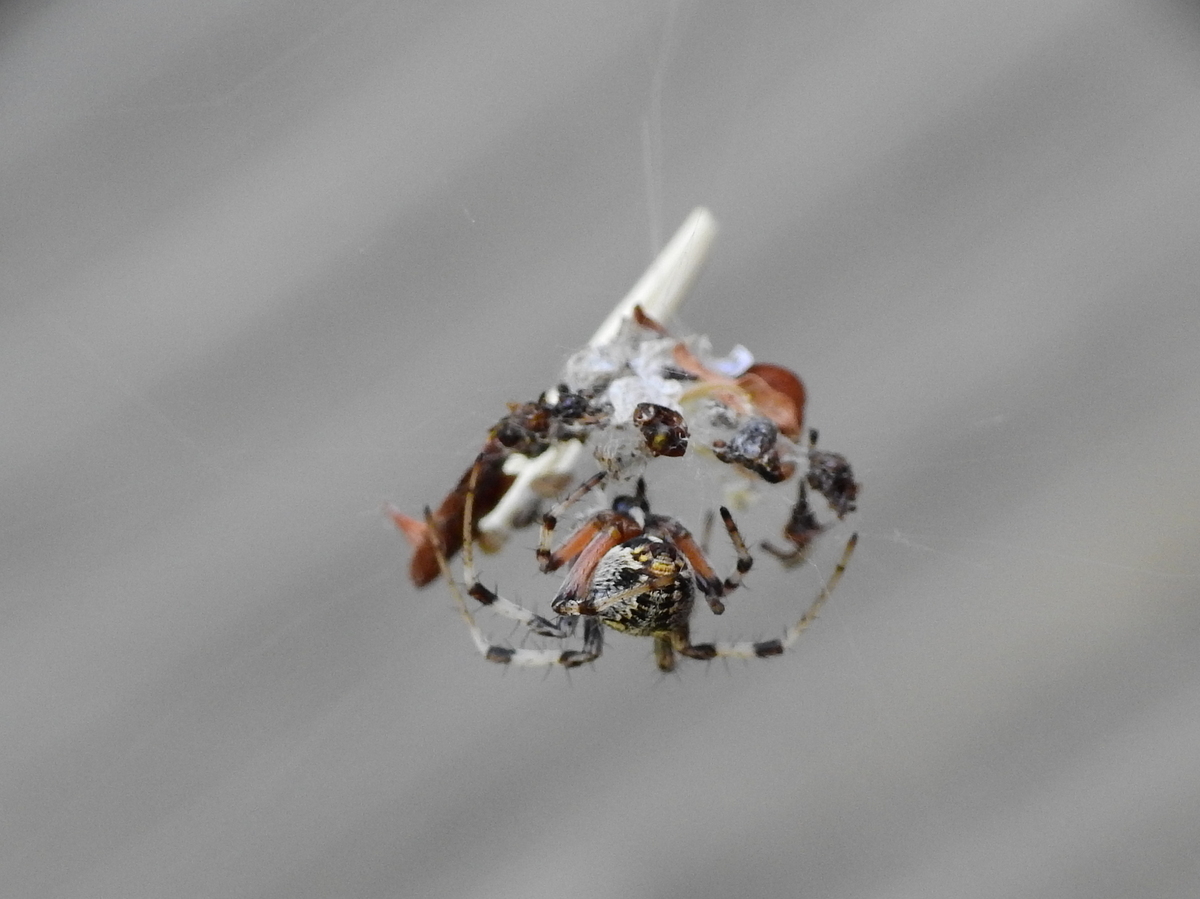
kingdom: Animalia
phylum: Arthropoda
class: Arachnida
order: Araneae
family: Araneidae
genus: Metepeira
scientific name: Metepeira
